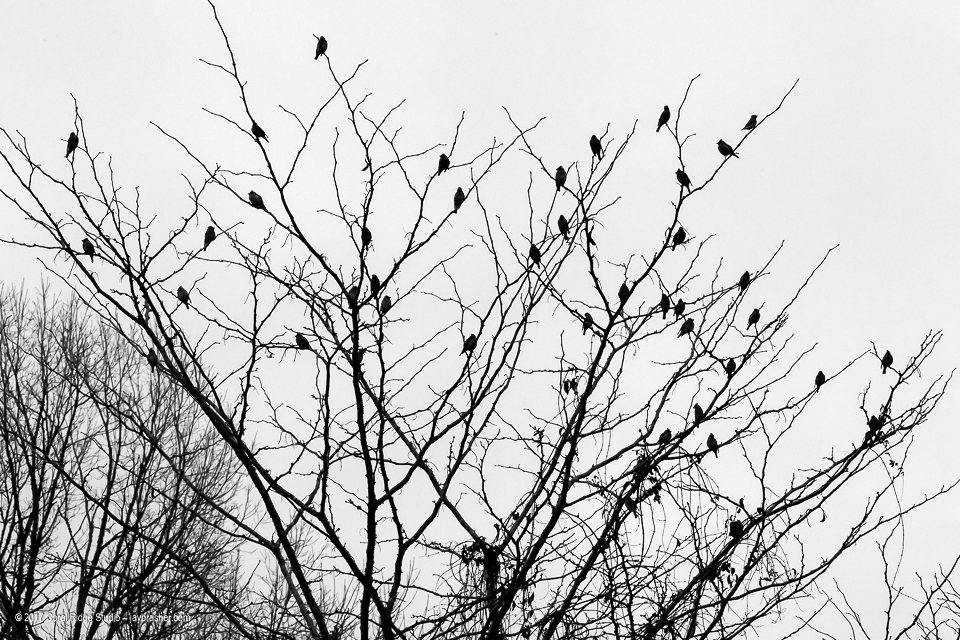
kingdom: Animalia
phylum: Chordata
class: Aves
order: Passeriformes
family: Bombycillidae
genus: Bombycilla
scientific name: Bombycilla cedrorum
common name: Cedar waxwing
